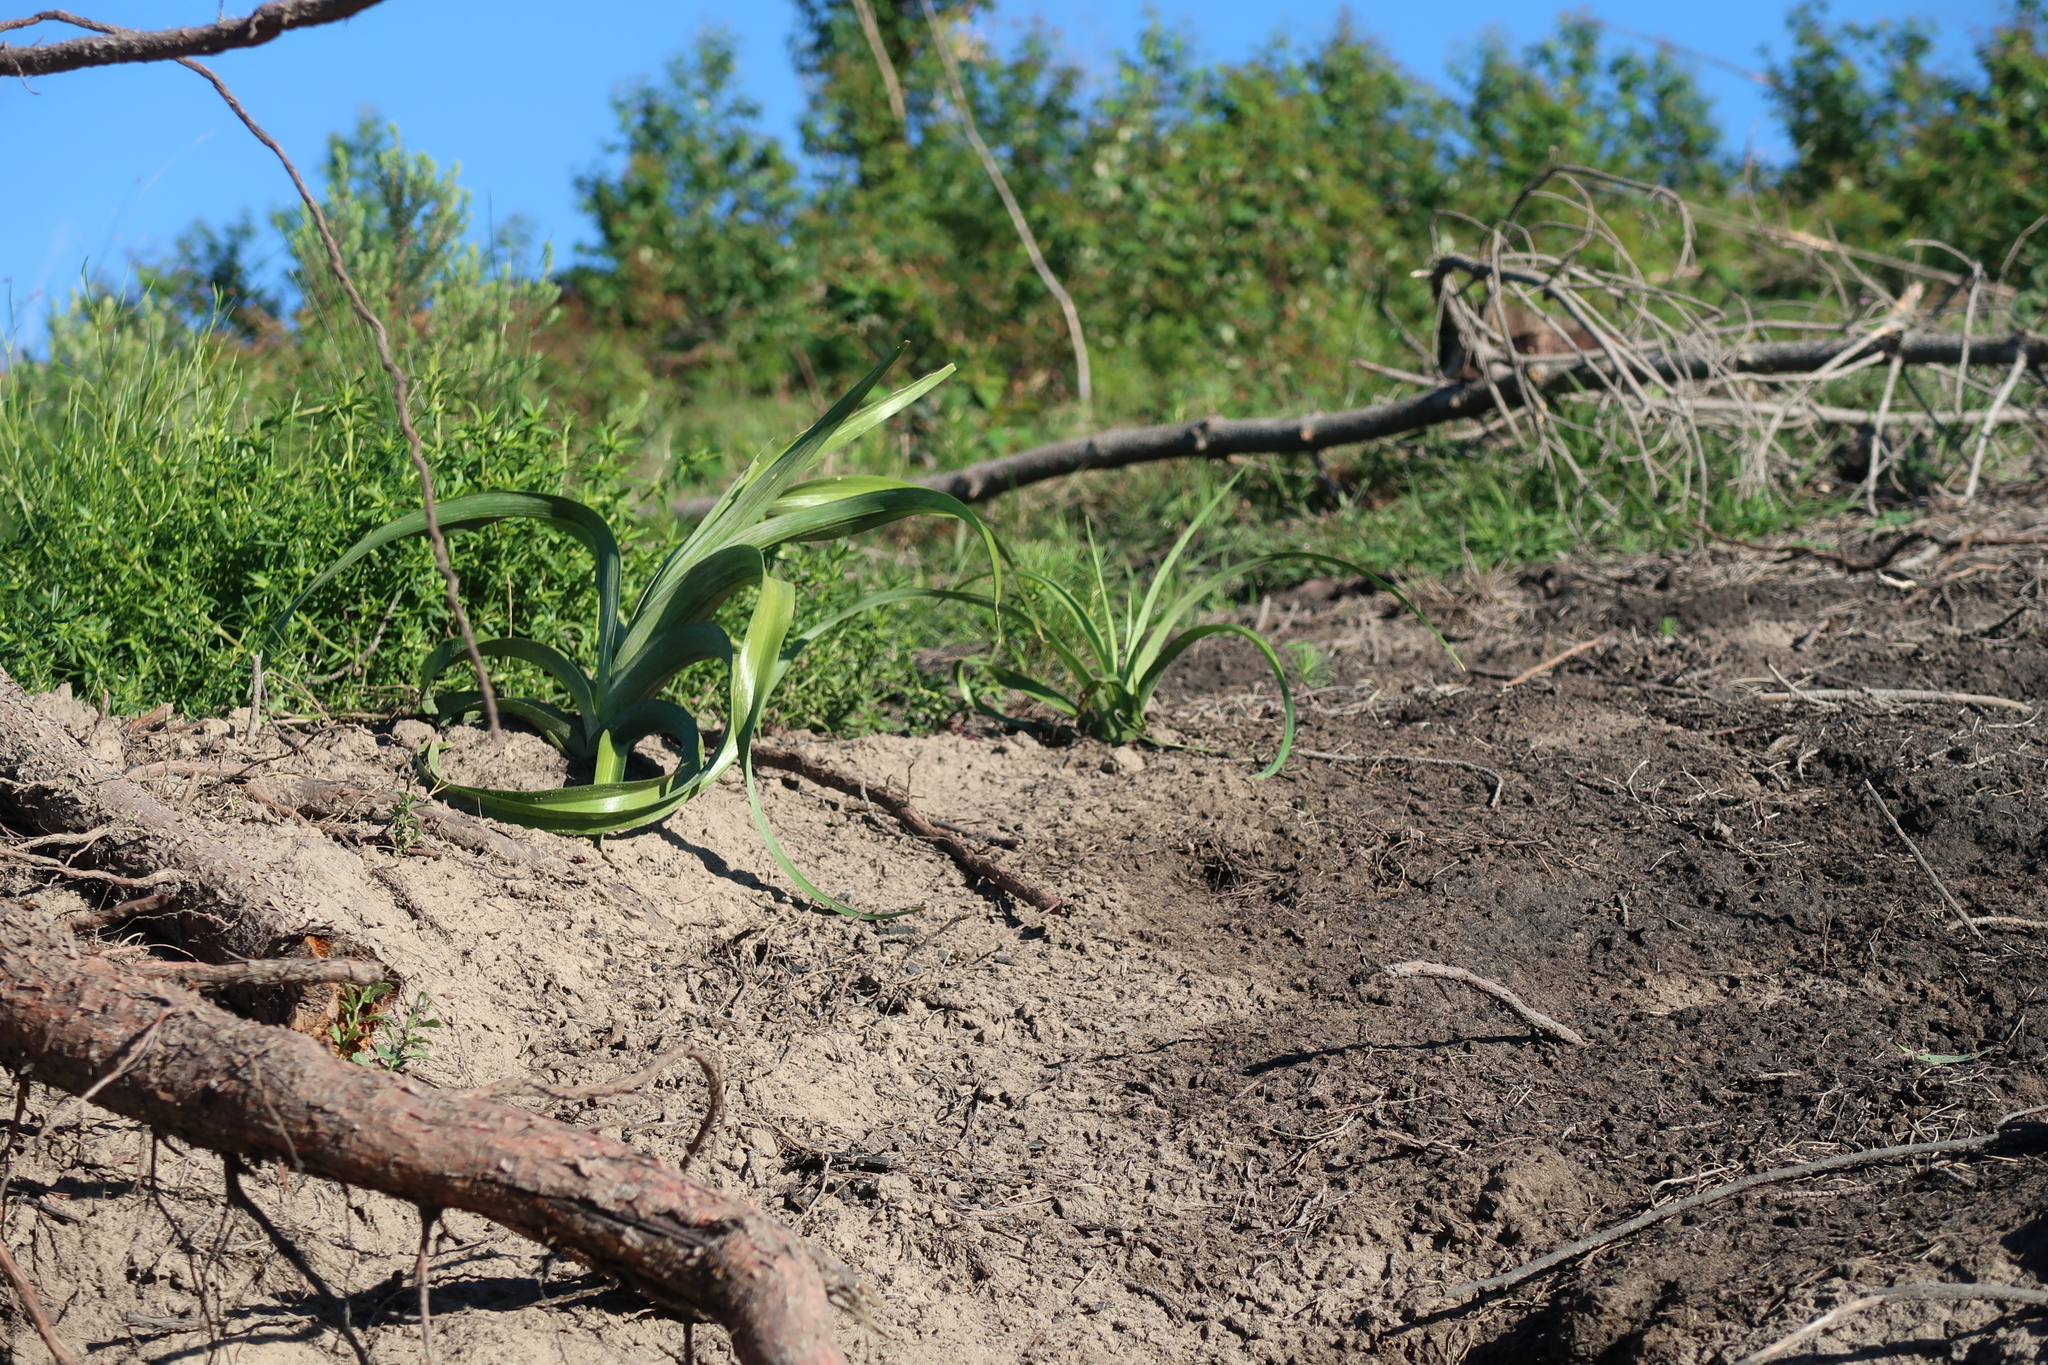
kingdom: Plantae
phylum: Tracheophyta
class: Liliopsida
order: Asparagales
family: Hypoxidaceae
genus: Hypoxis
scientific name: Hypoxis hemerocallidea
